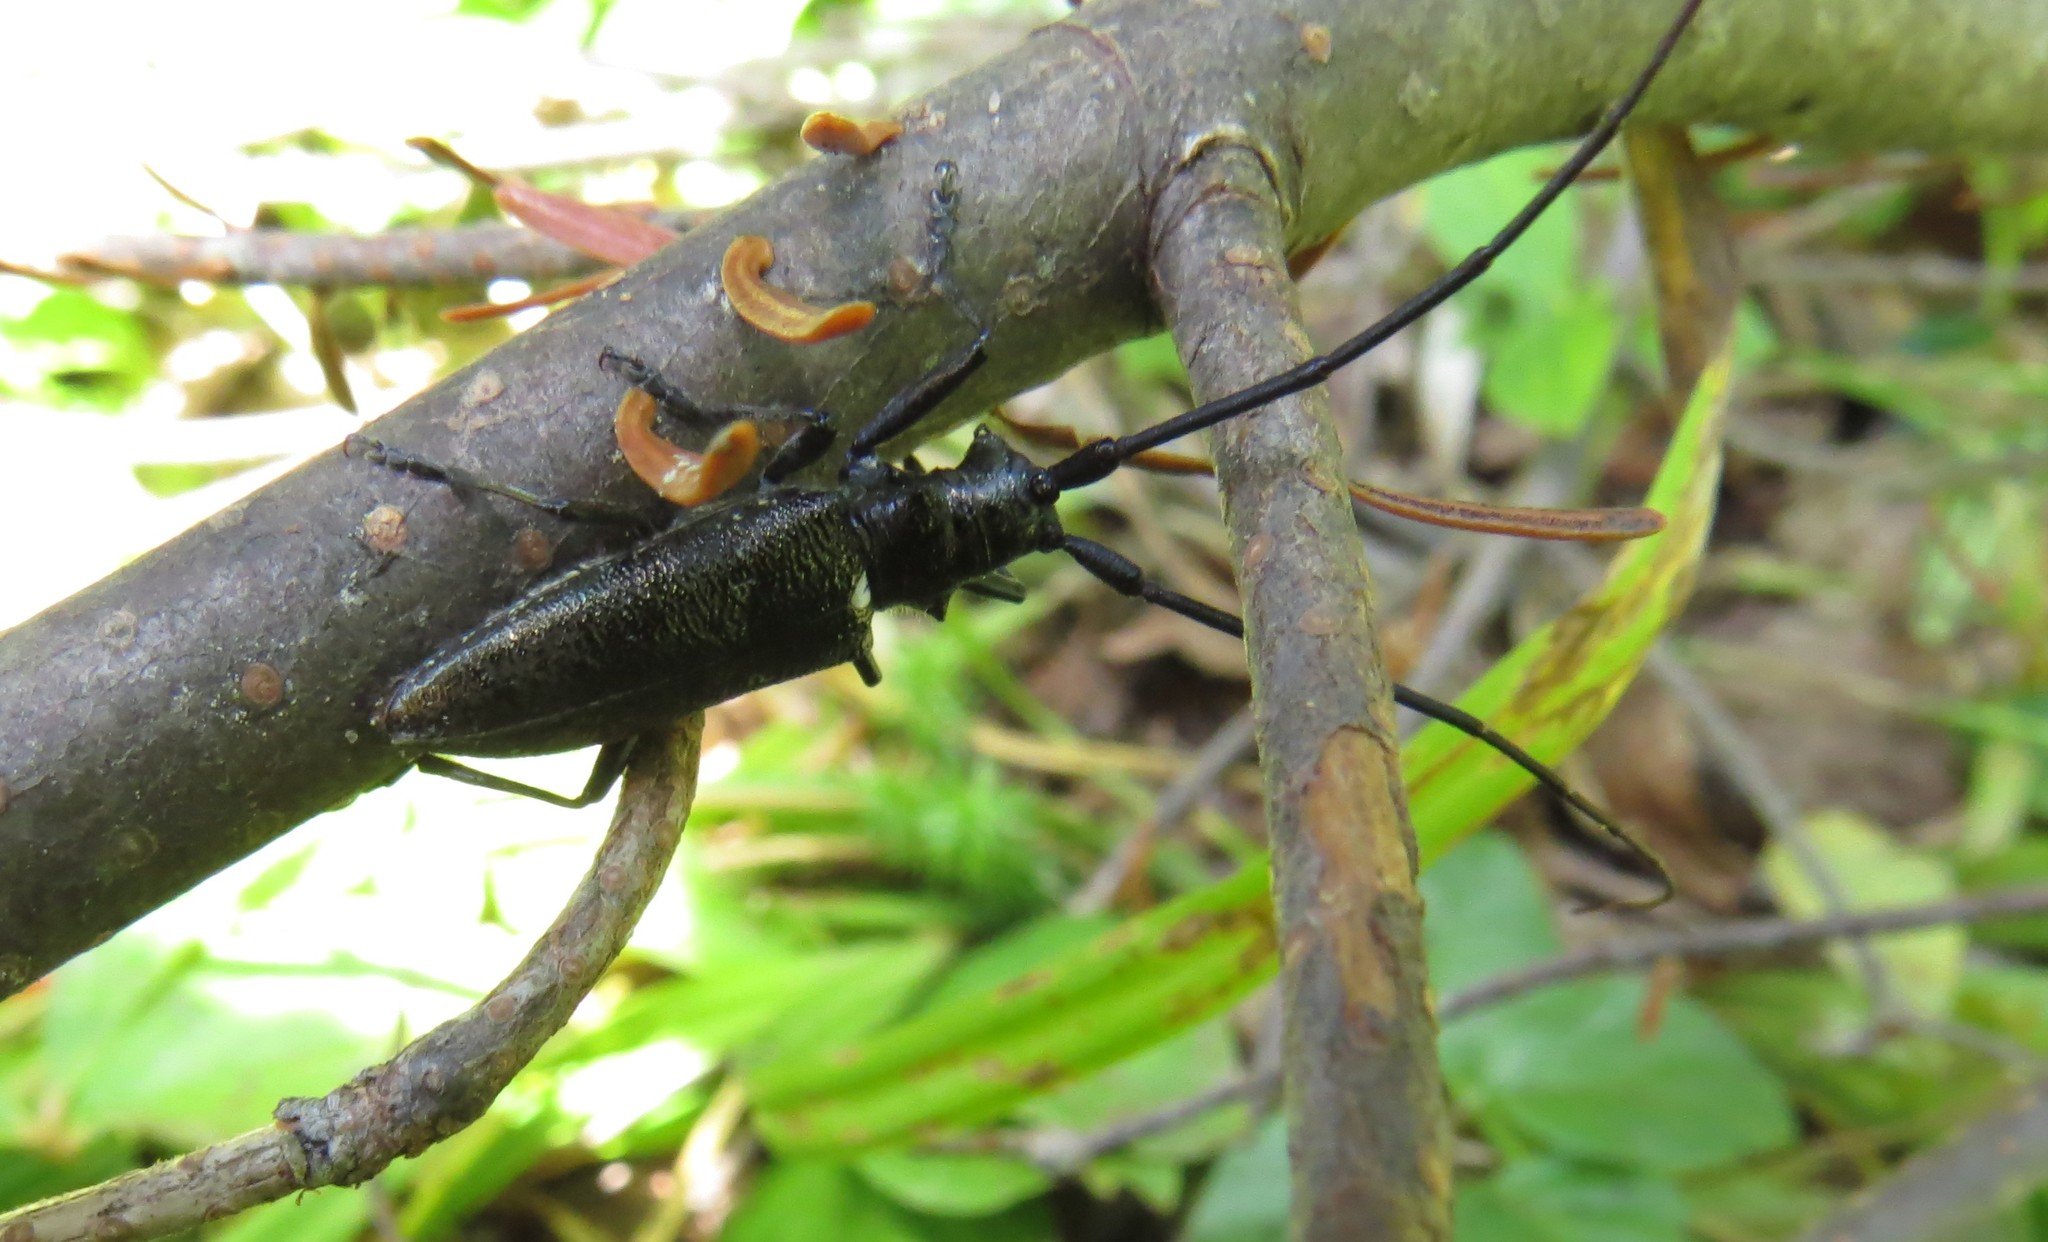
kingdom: Animalia
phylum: Arthropoda
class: Insecta
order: Coleoptera
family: Cerambycidae
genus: Monochamus
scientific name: Monochamus scutellatus
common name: White-spotted sawyer beetle
